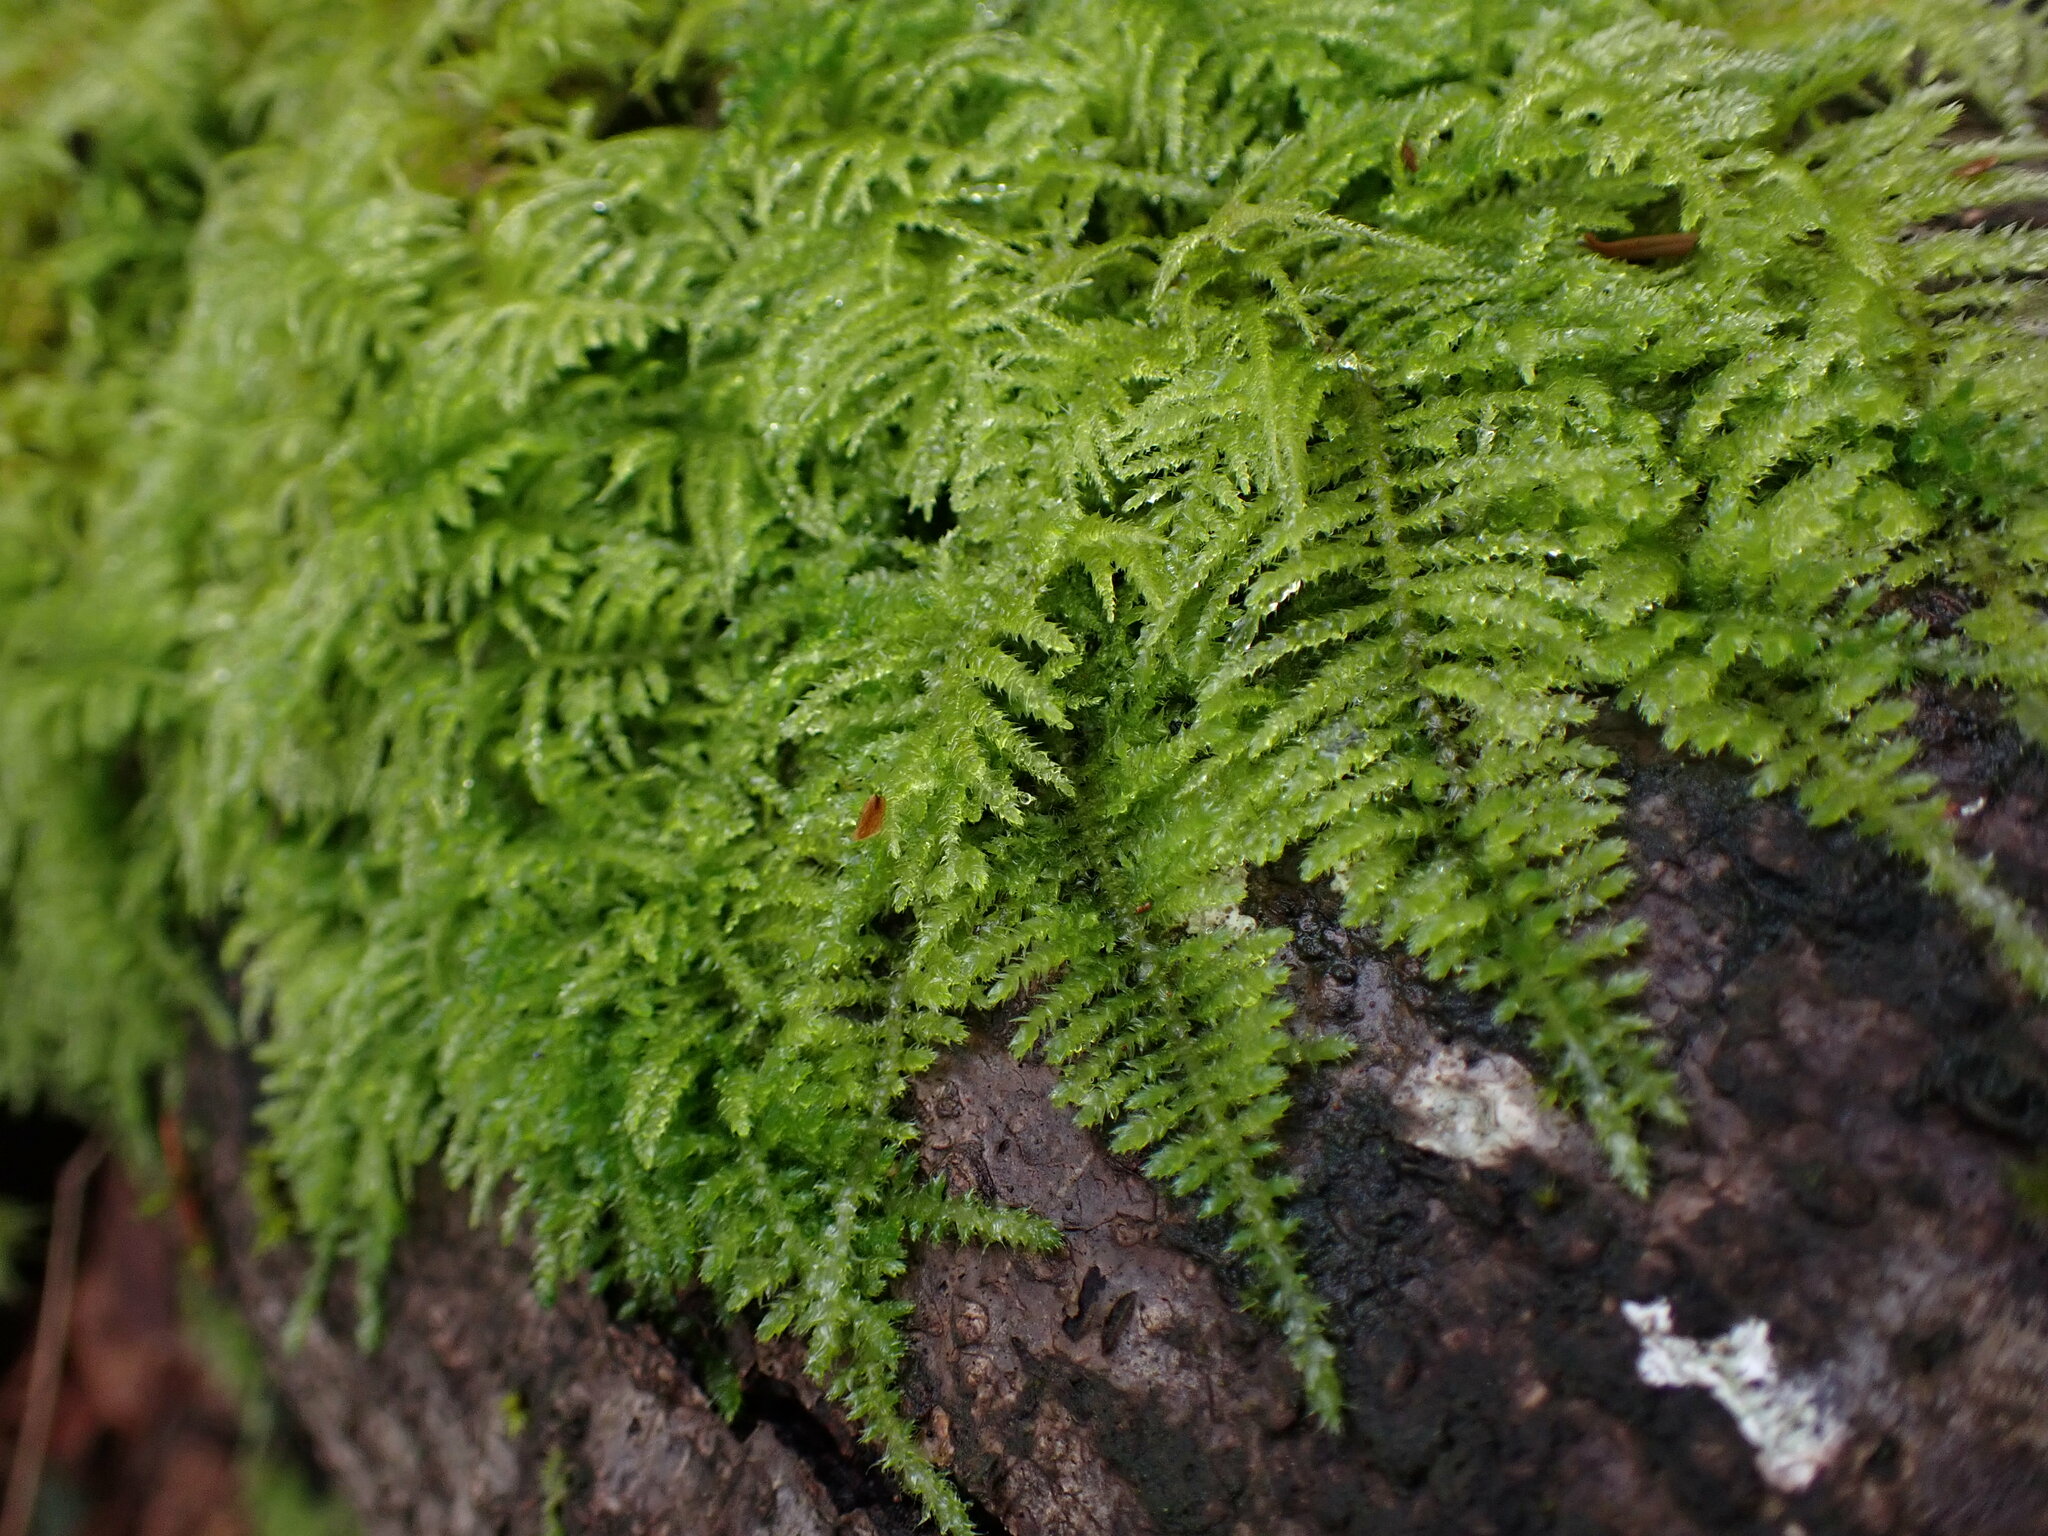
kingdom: Plantae
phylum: Bryophyta
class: Bryopsida
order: Hypnales
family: Brachytheciaceae
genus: Kindbergia
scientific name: Kindbergia oregana
